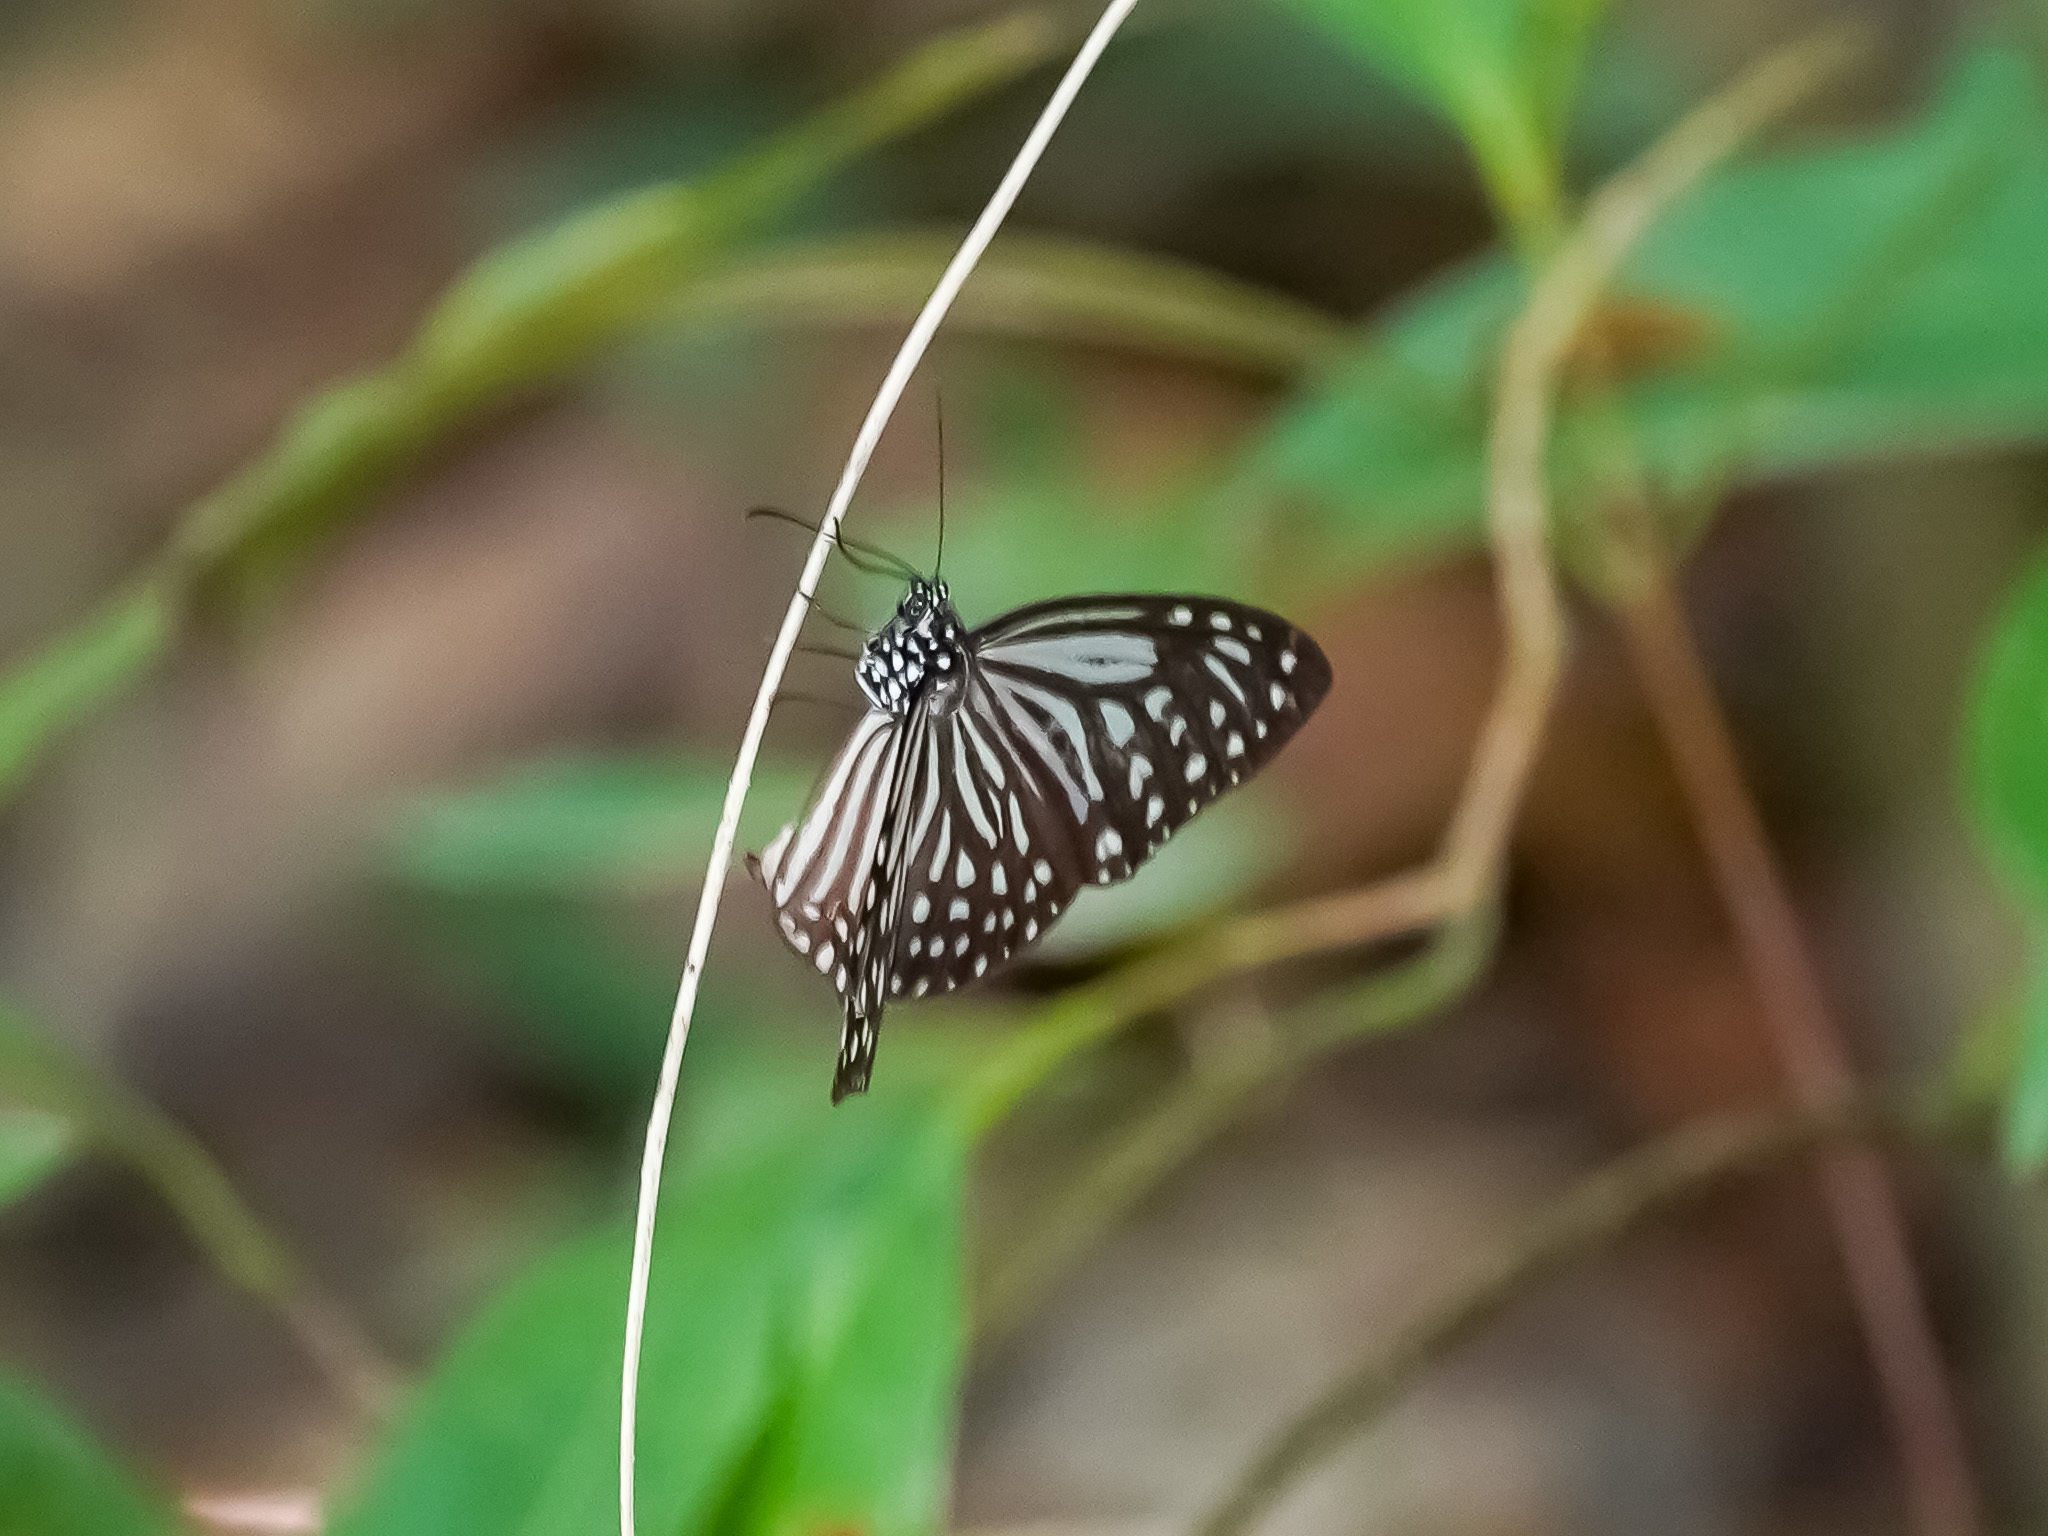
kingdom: Animalia
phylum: Arthropoda
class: Insecta
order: Lepidoptera
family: Nymphalidae
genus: Parantica
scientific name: Parantica agleoides
